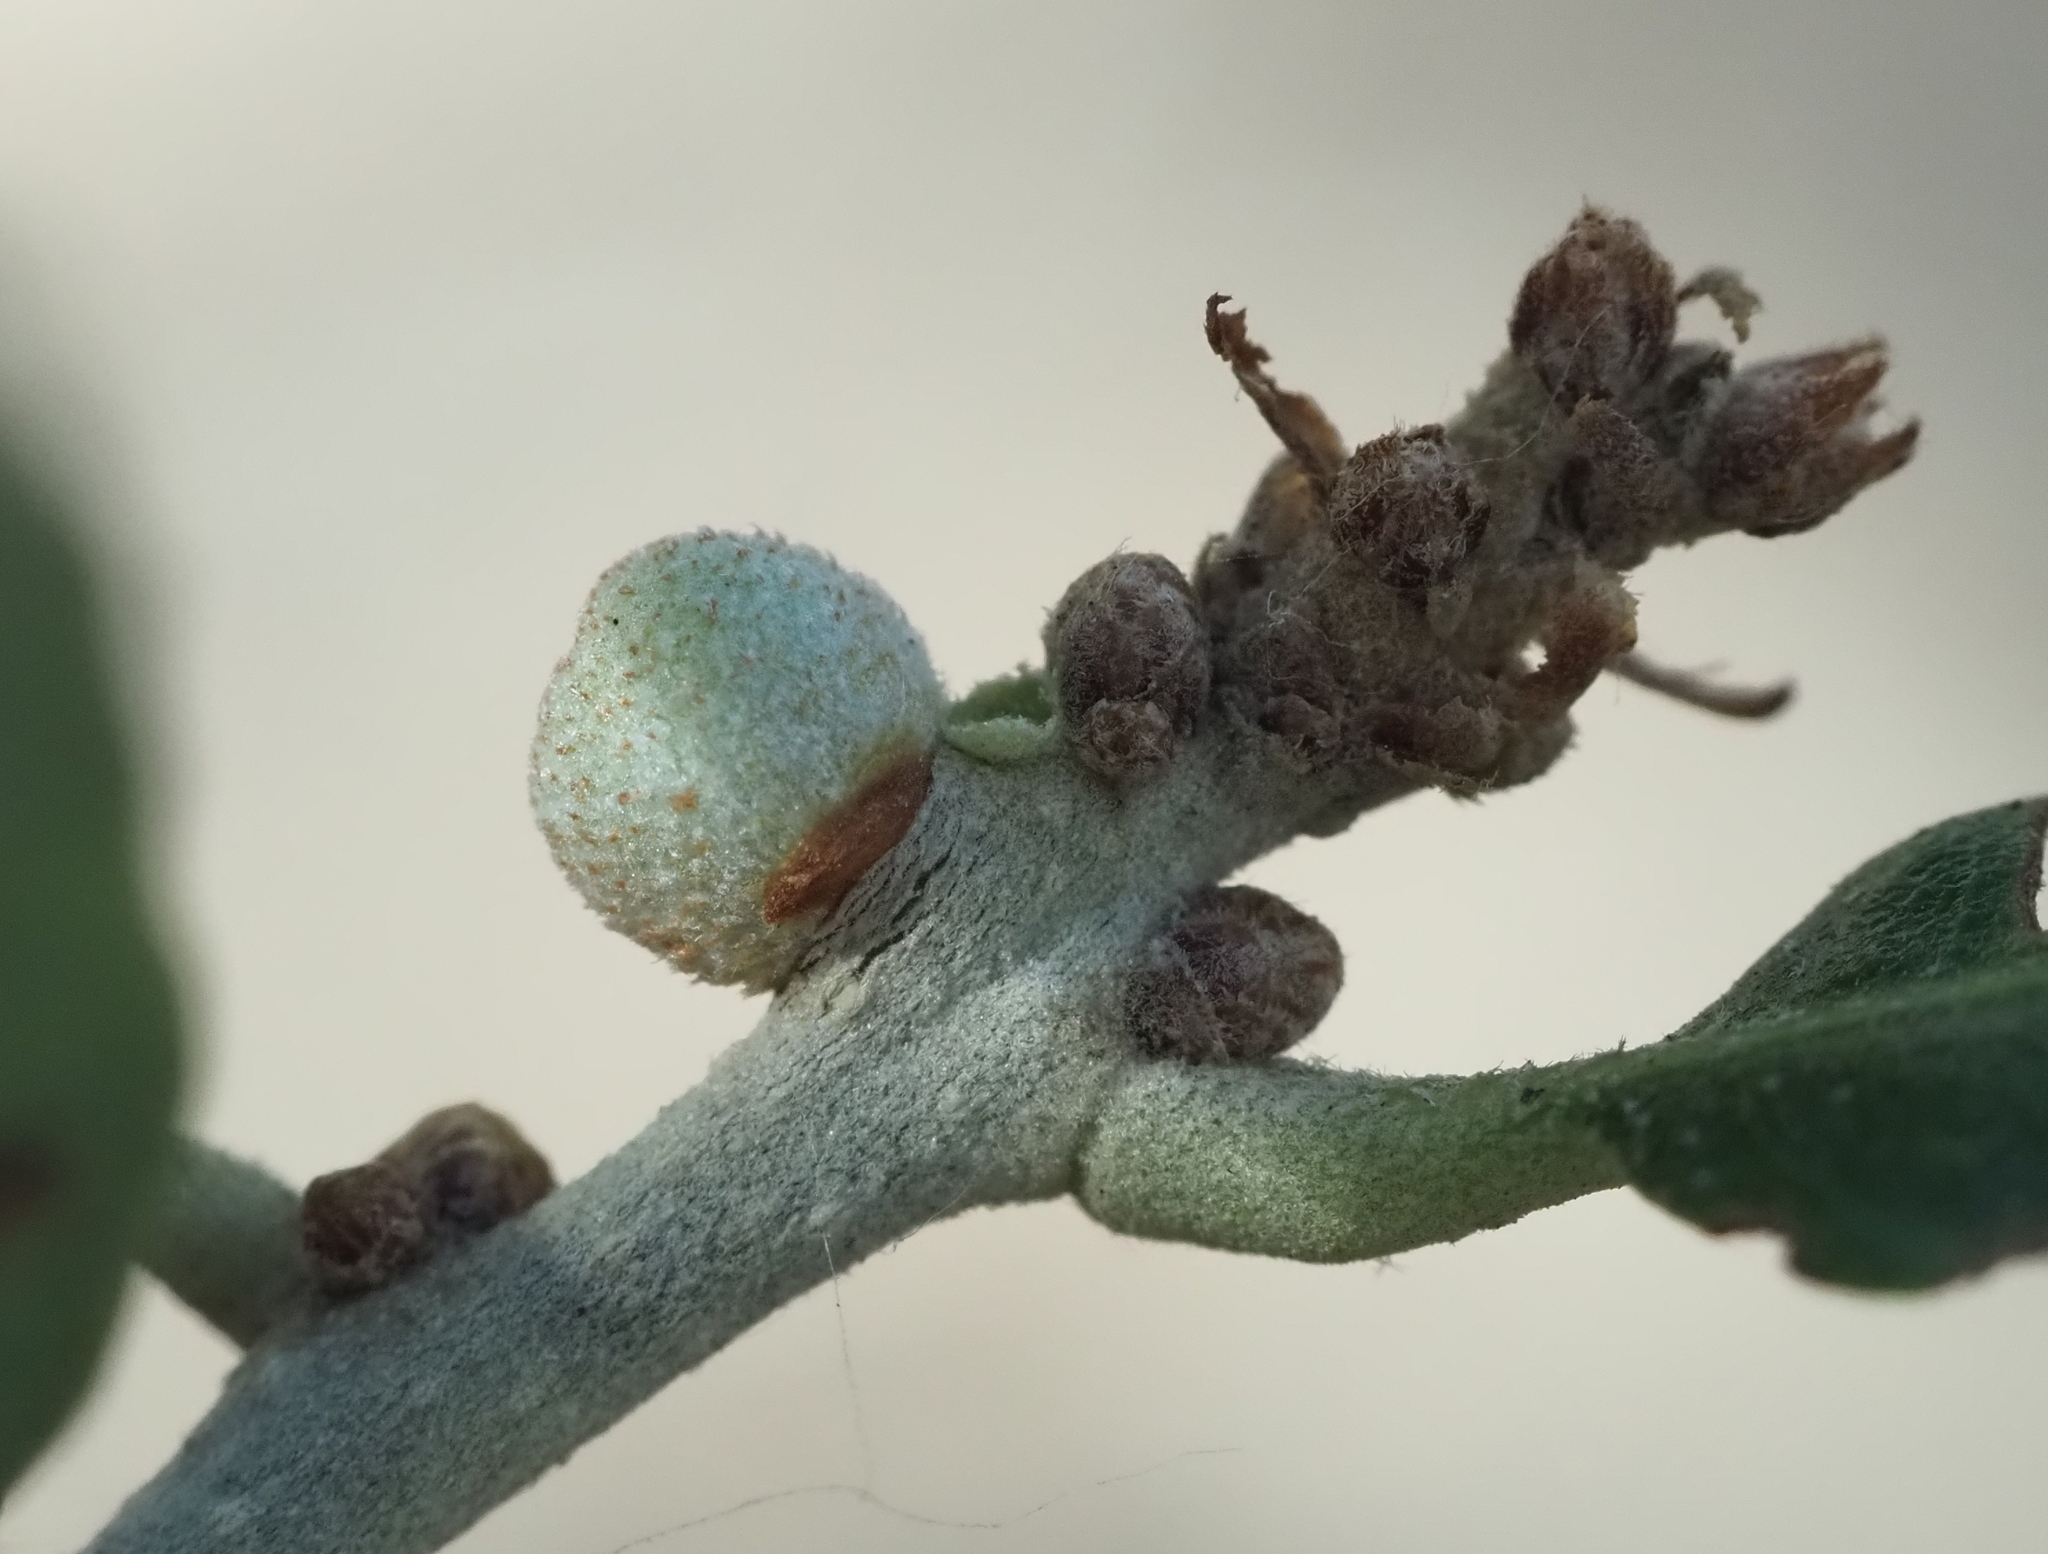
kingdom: Animalia
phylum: Arthropoda
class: Insecta
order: Hymenoptera
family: Cynipidae
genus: Disholcaspis
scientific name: Disholcaspis
